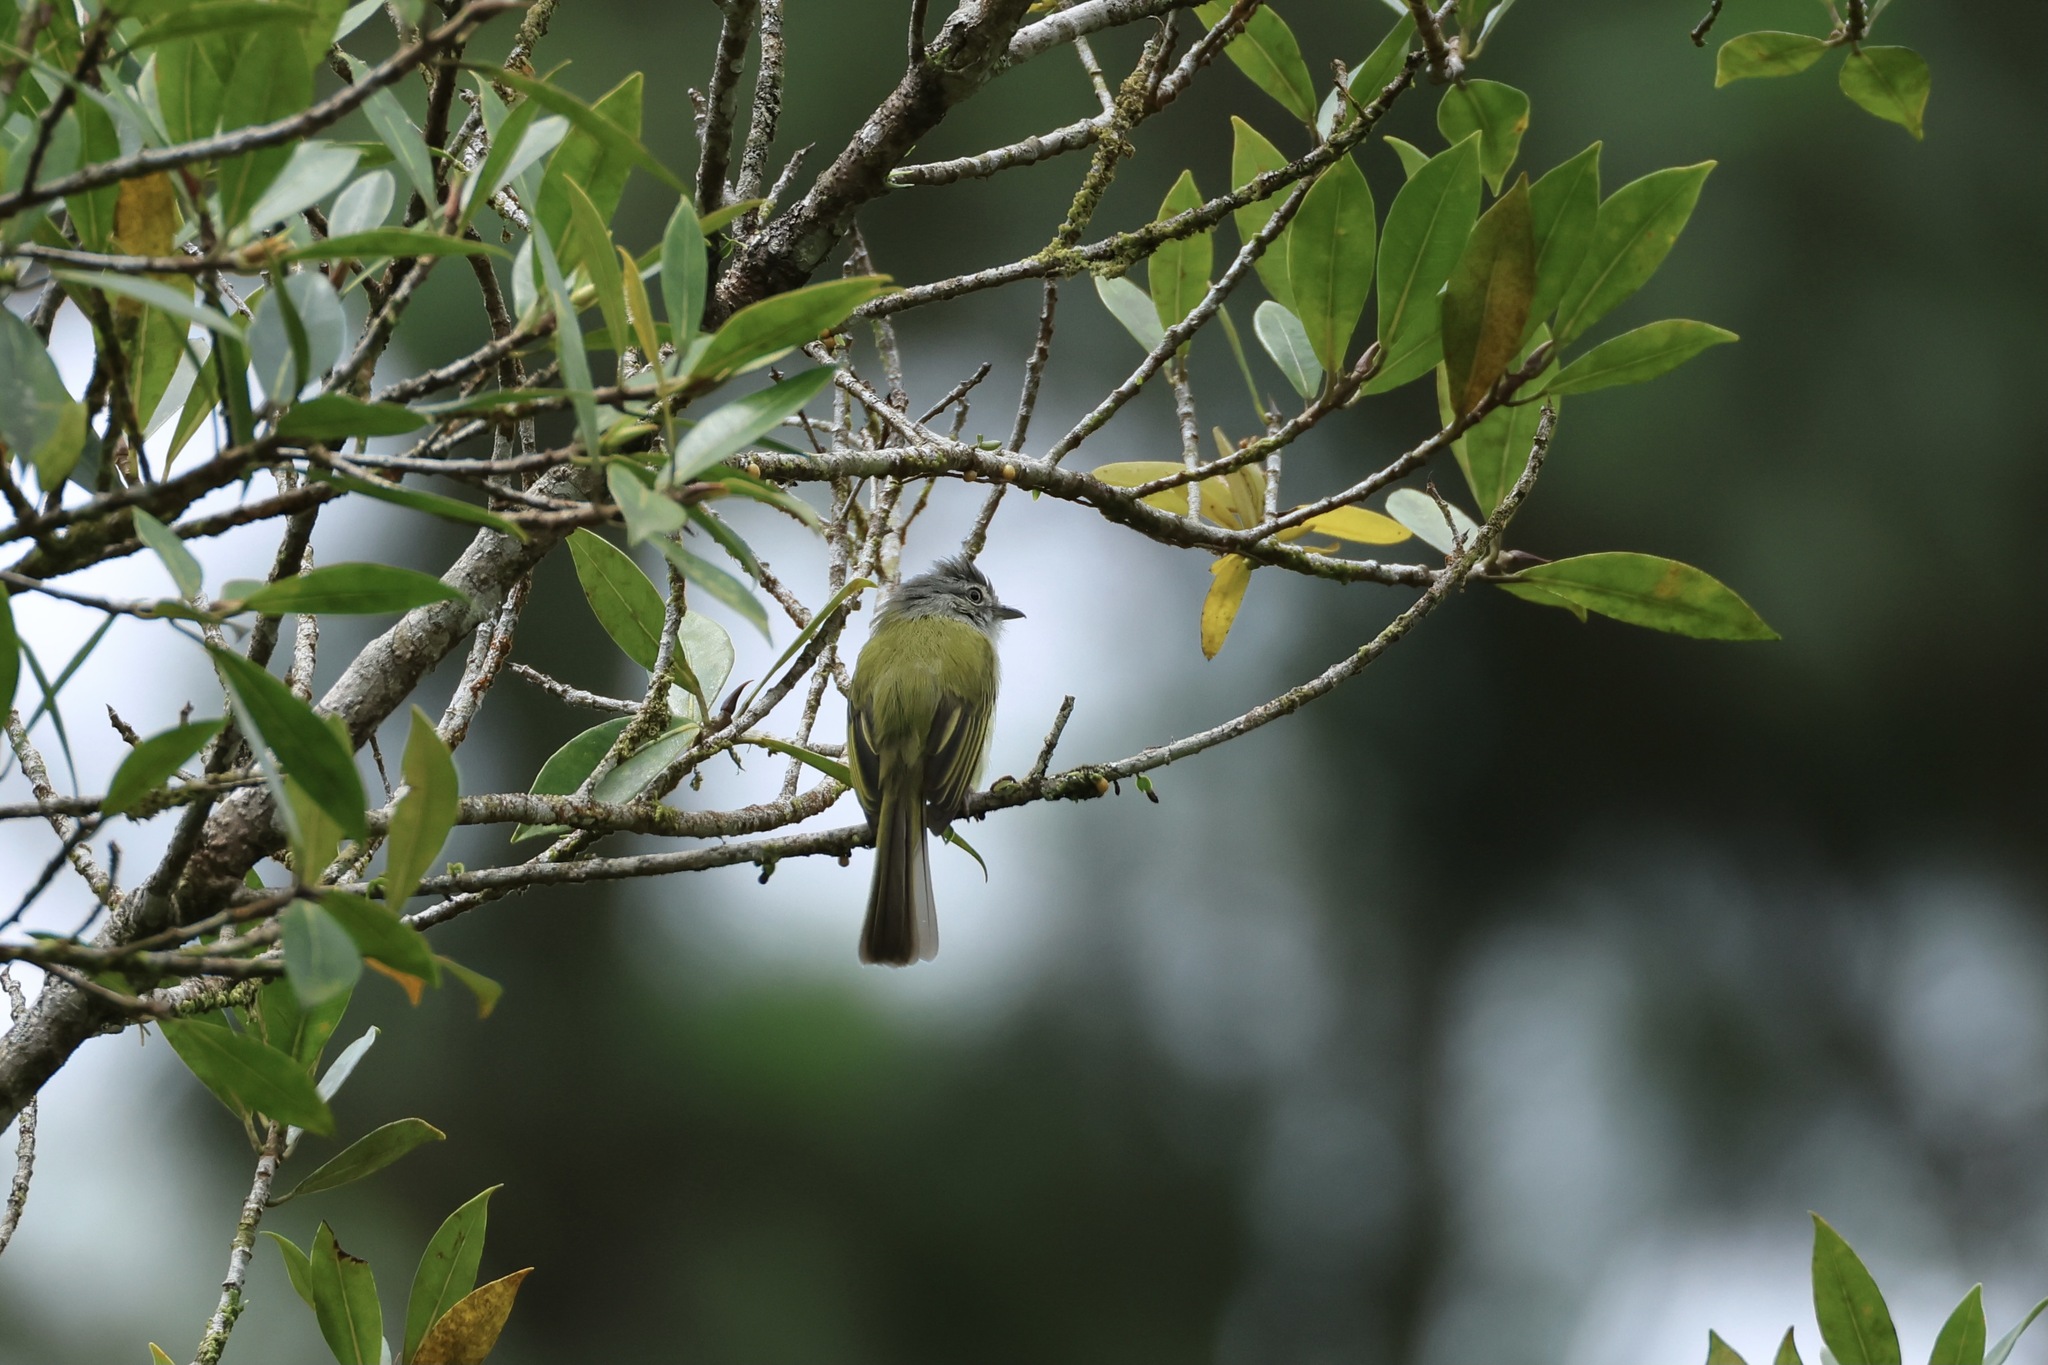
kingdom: Animalia
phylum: Chordata
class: Aves
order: Passeriformes
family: Tyrannidae
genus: Tolmomyias
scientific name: Tolmomyias sulphurescens
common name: Yellow-olive flycatcher
